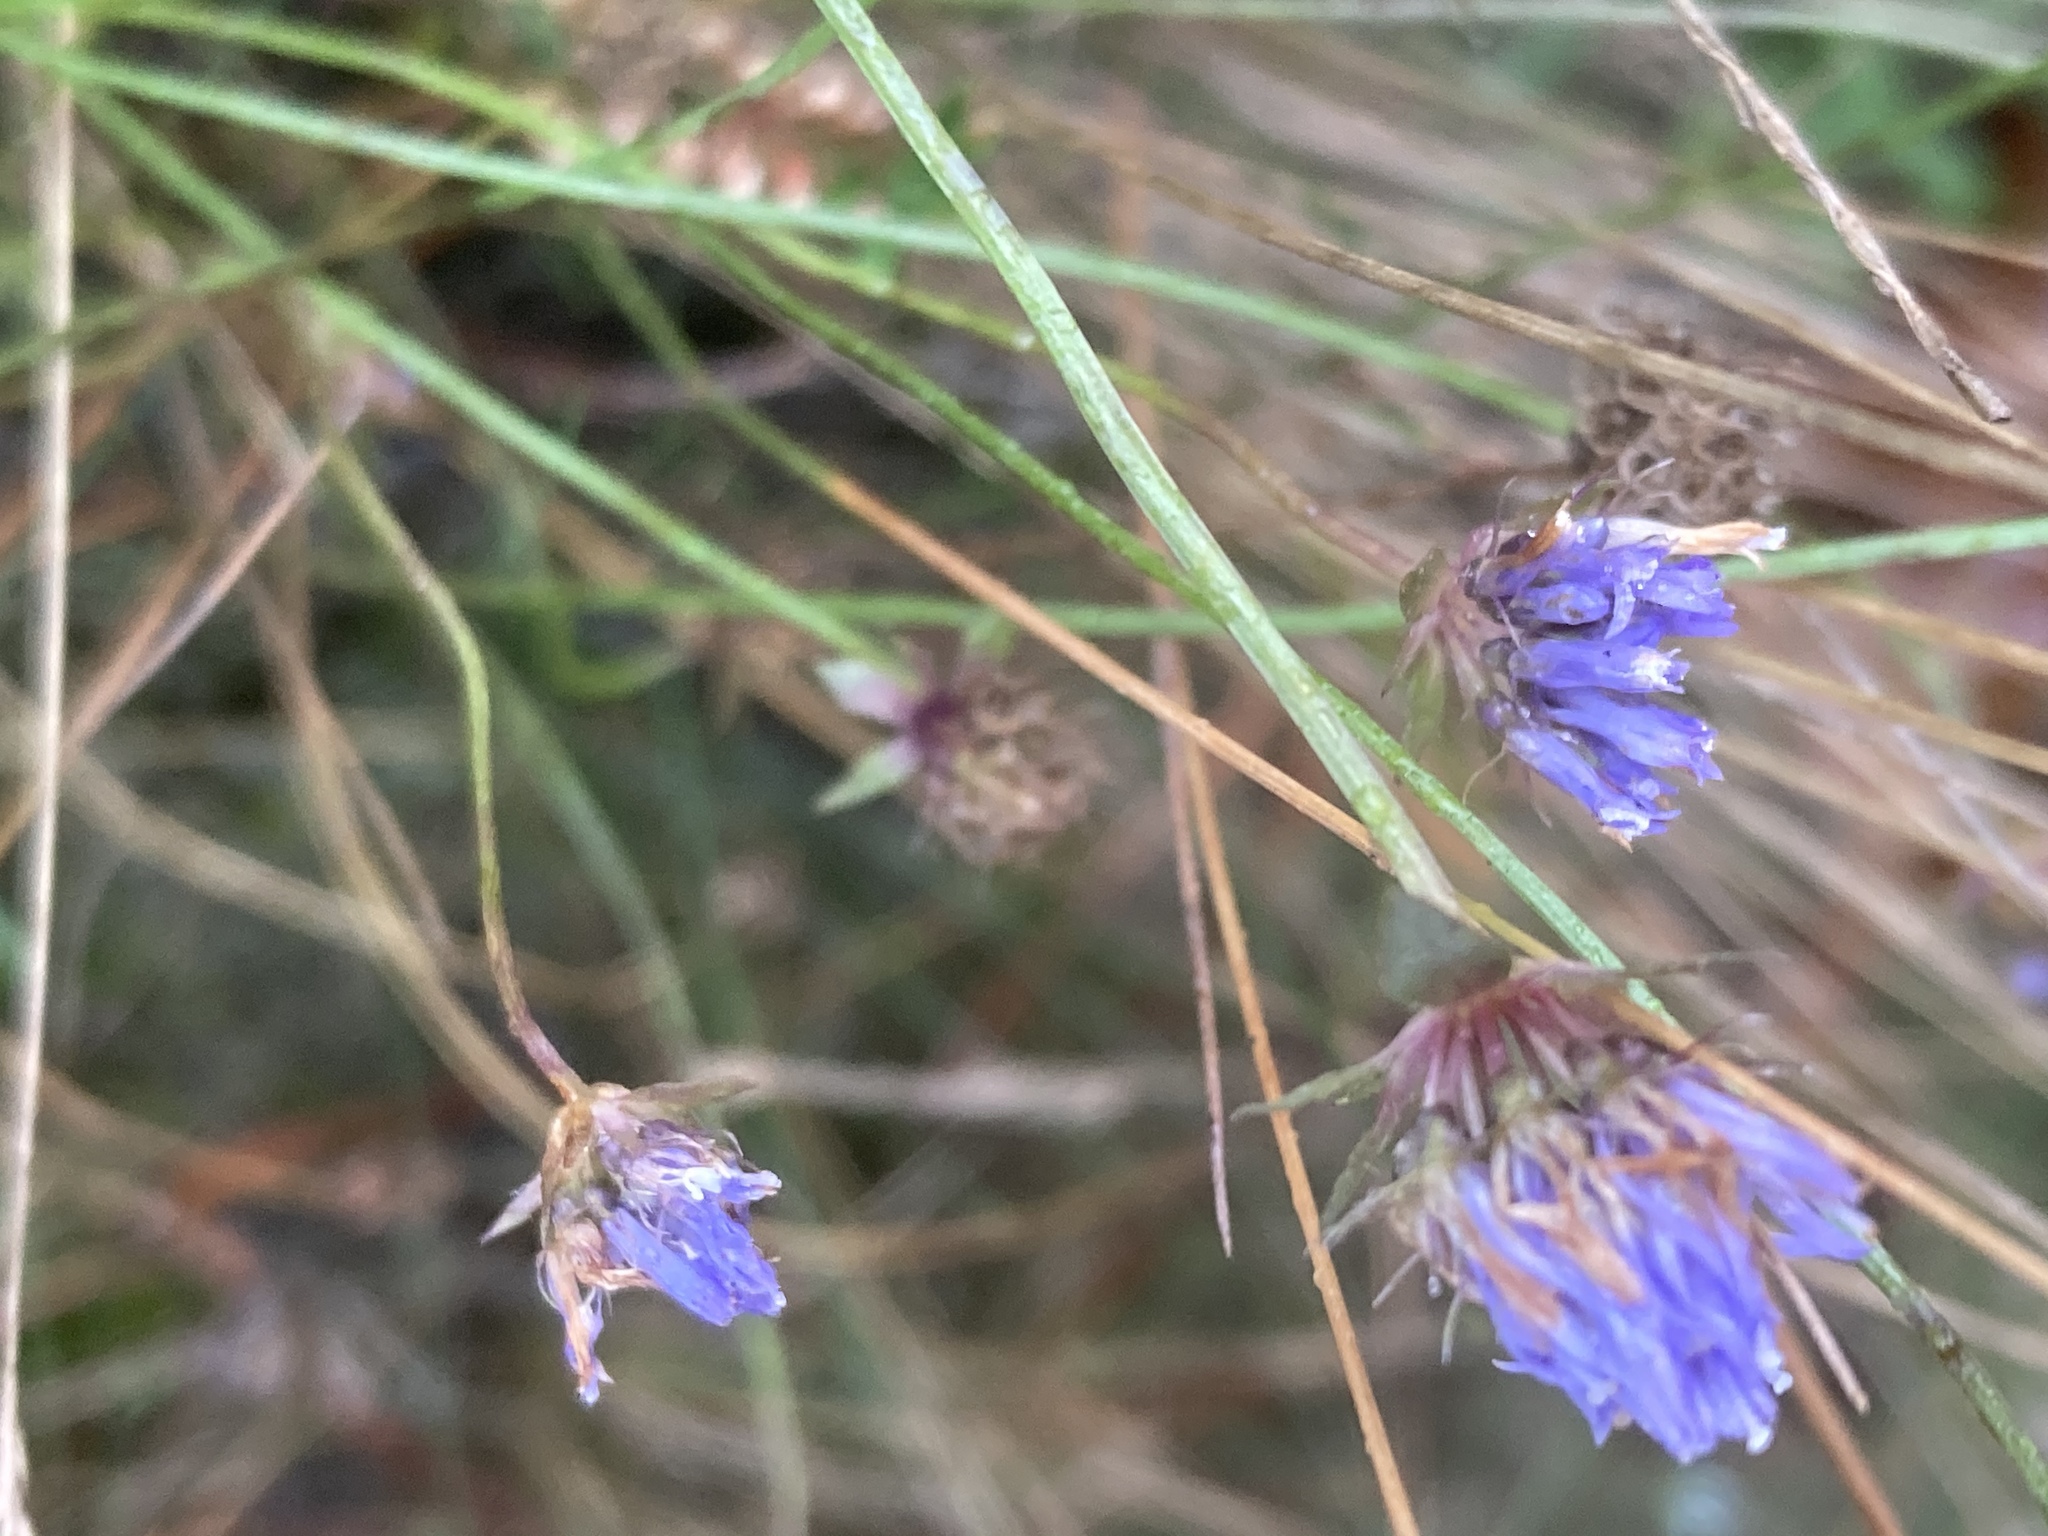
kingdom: Plantae
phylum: Tracheophyta
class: Magnoliopsida
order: Asterales
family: Campanulaceae
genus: Jasione
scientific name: Jasione montana
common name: Sheep's-bit
